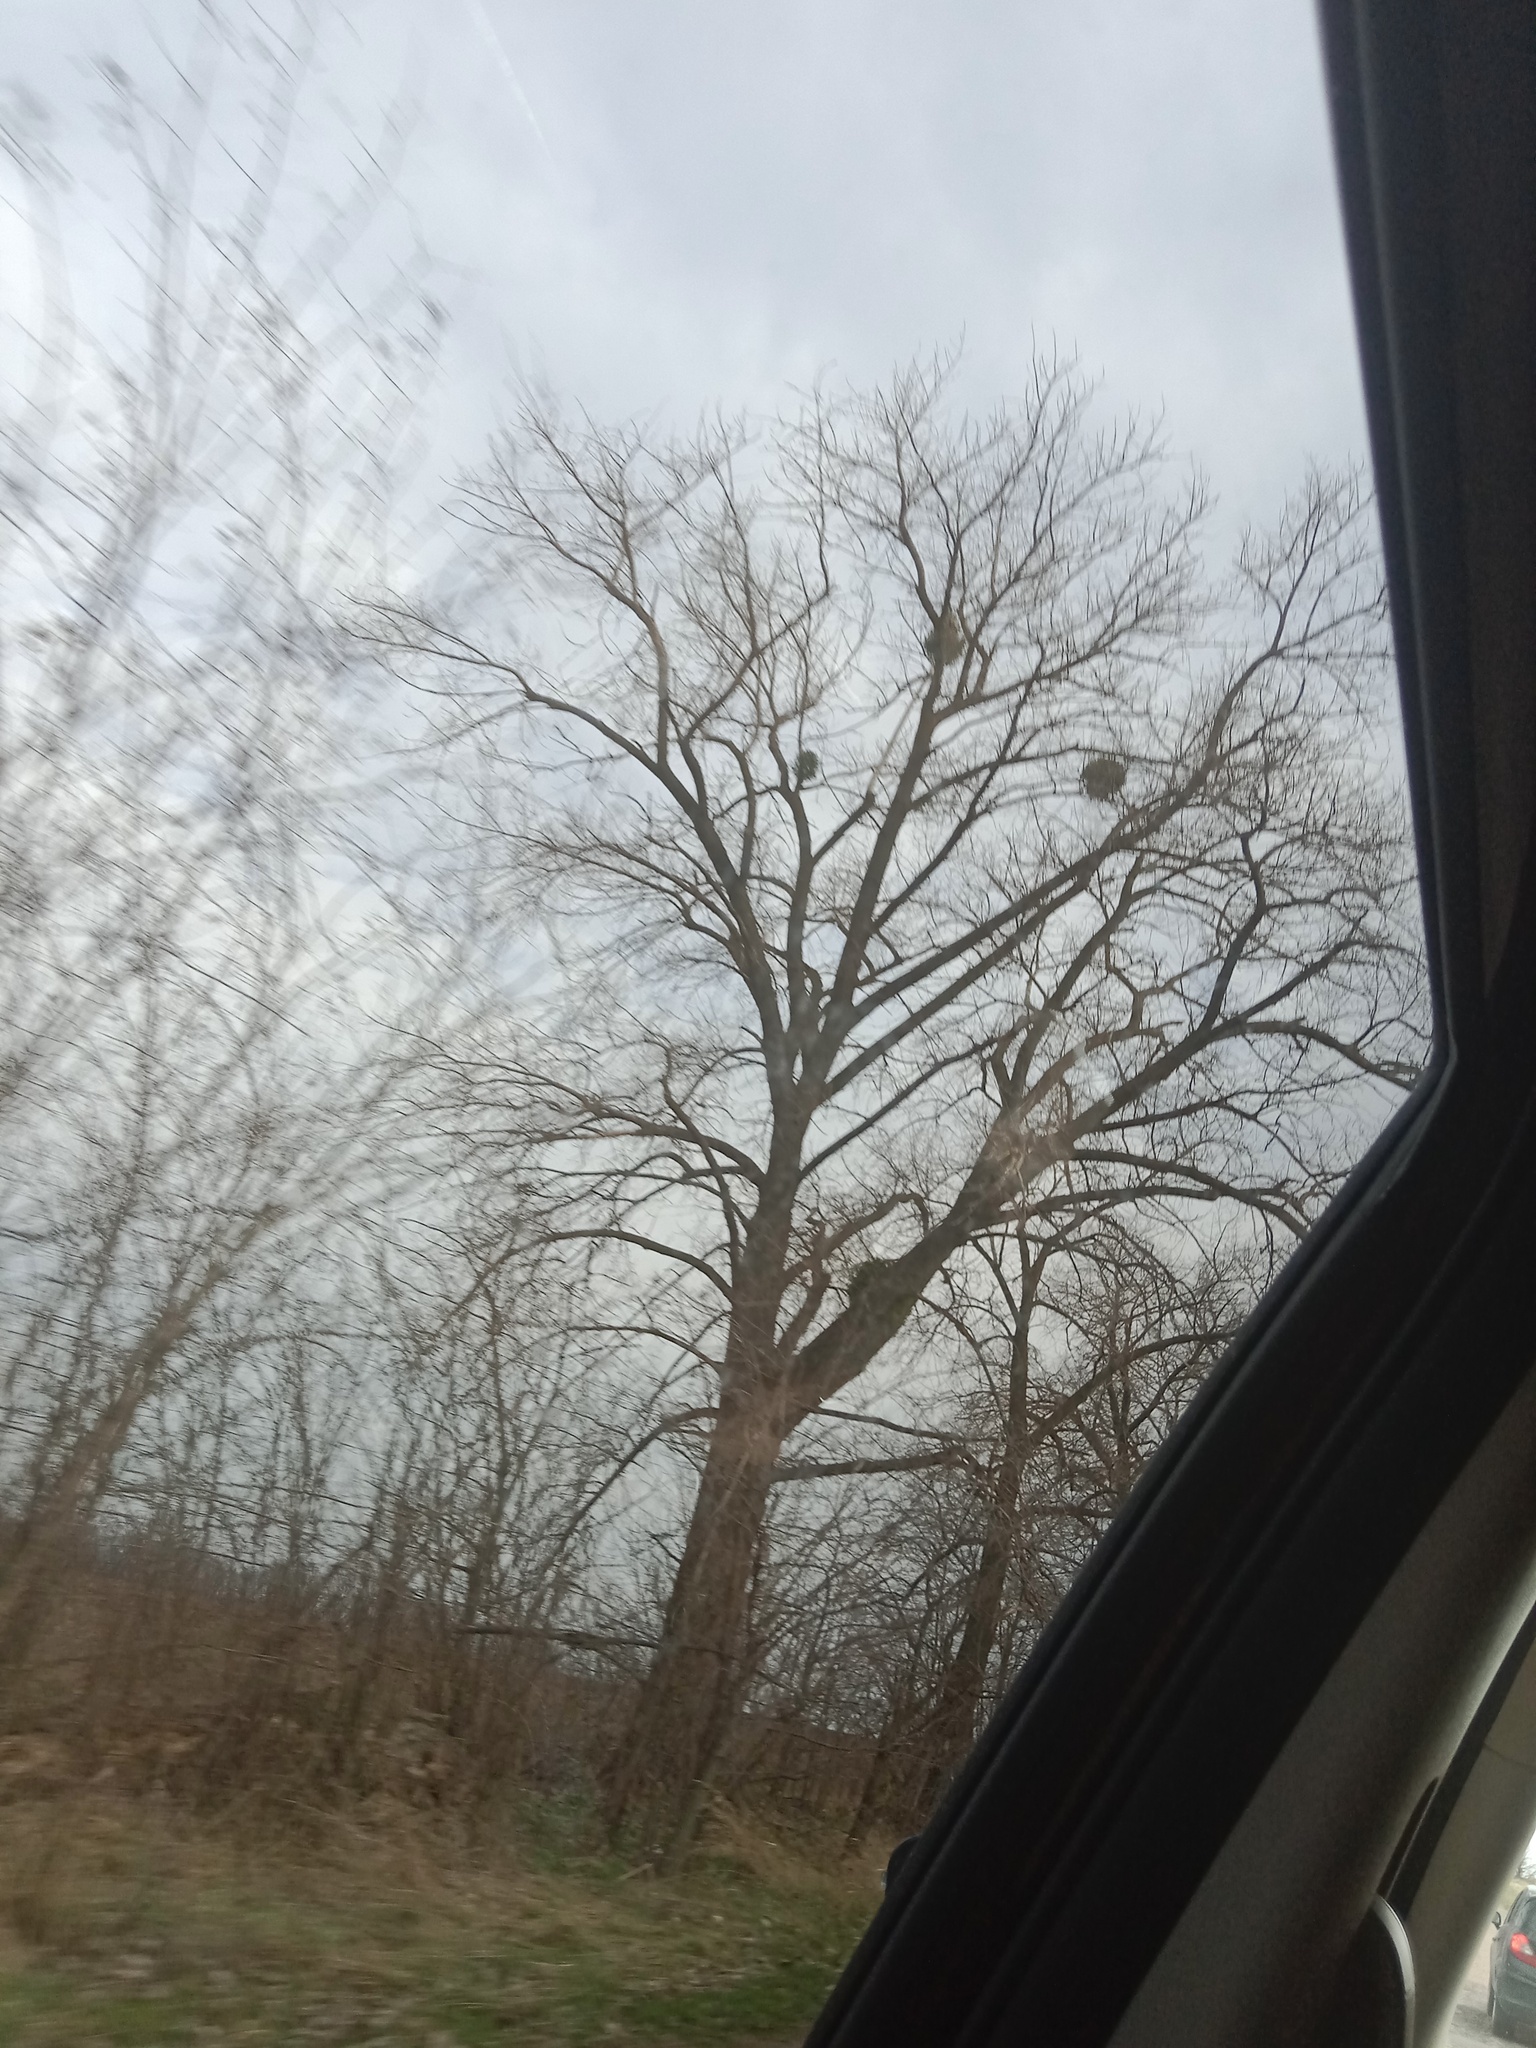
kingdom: Plantae
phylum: Tracheophyta
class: Magnoliopsida
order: Santalales
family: Viscaceae
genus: Viscum
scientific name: Viscum album
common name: Mistletoe
